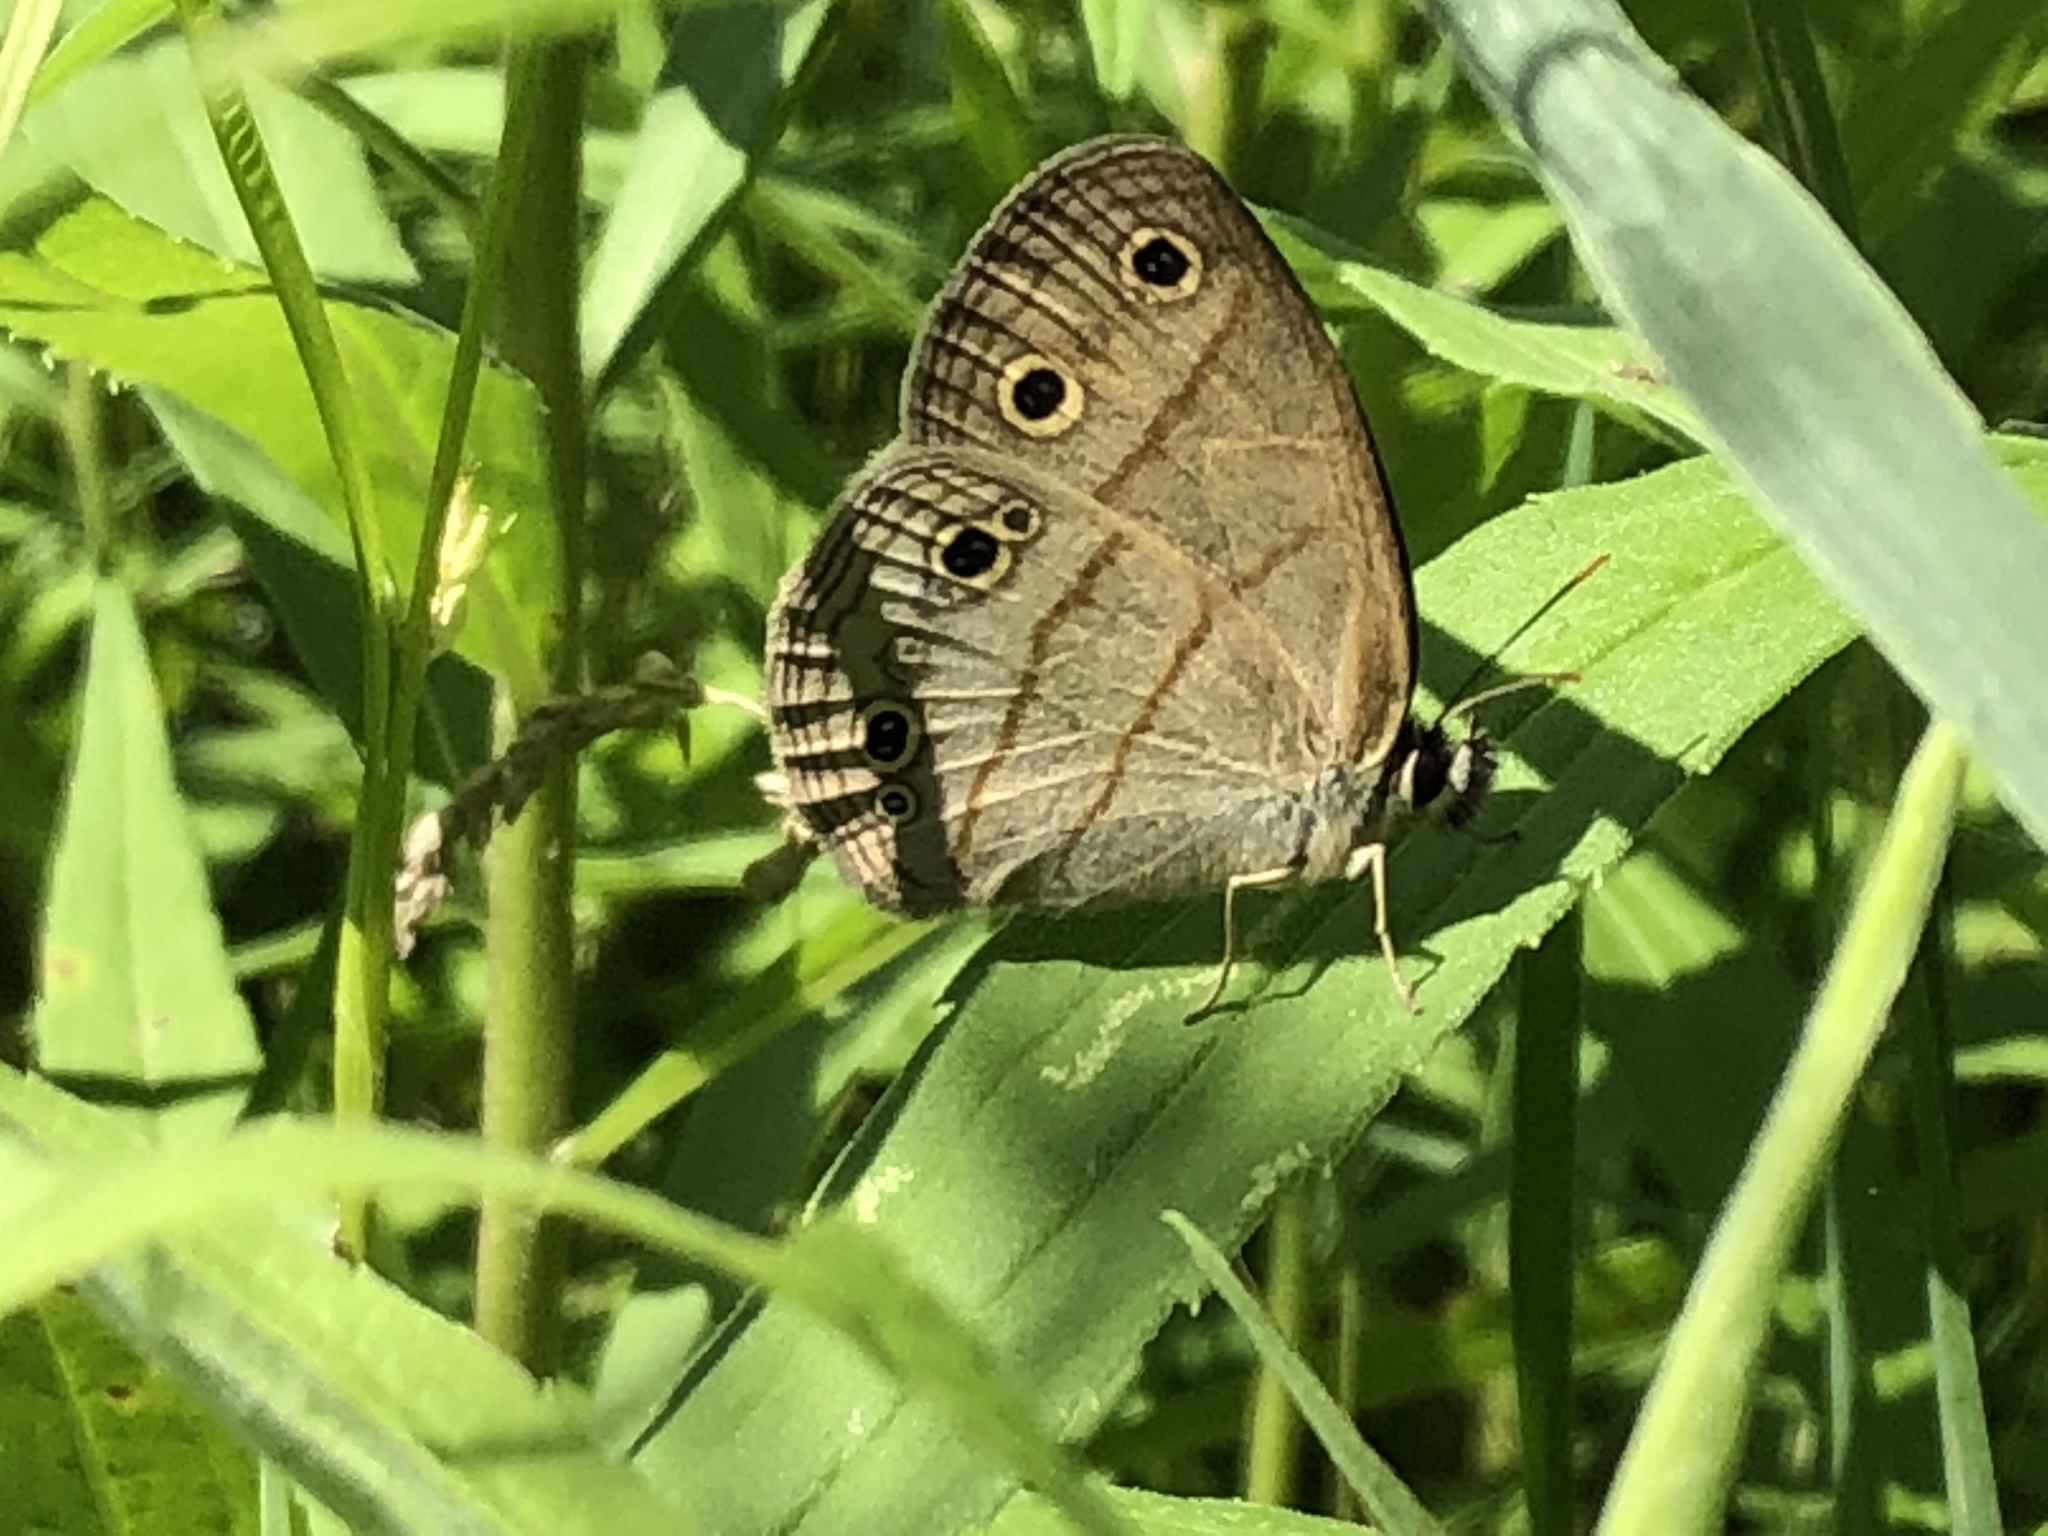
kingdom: Animalia
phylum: Arthropoda
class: Insecta
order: Lepidoptera
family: Nymphalidae
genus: Euptychia
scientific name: Euptychia cymela
